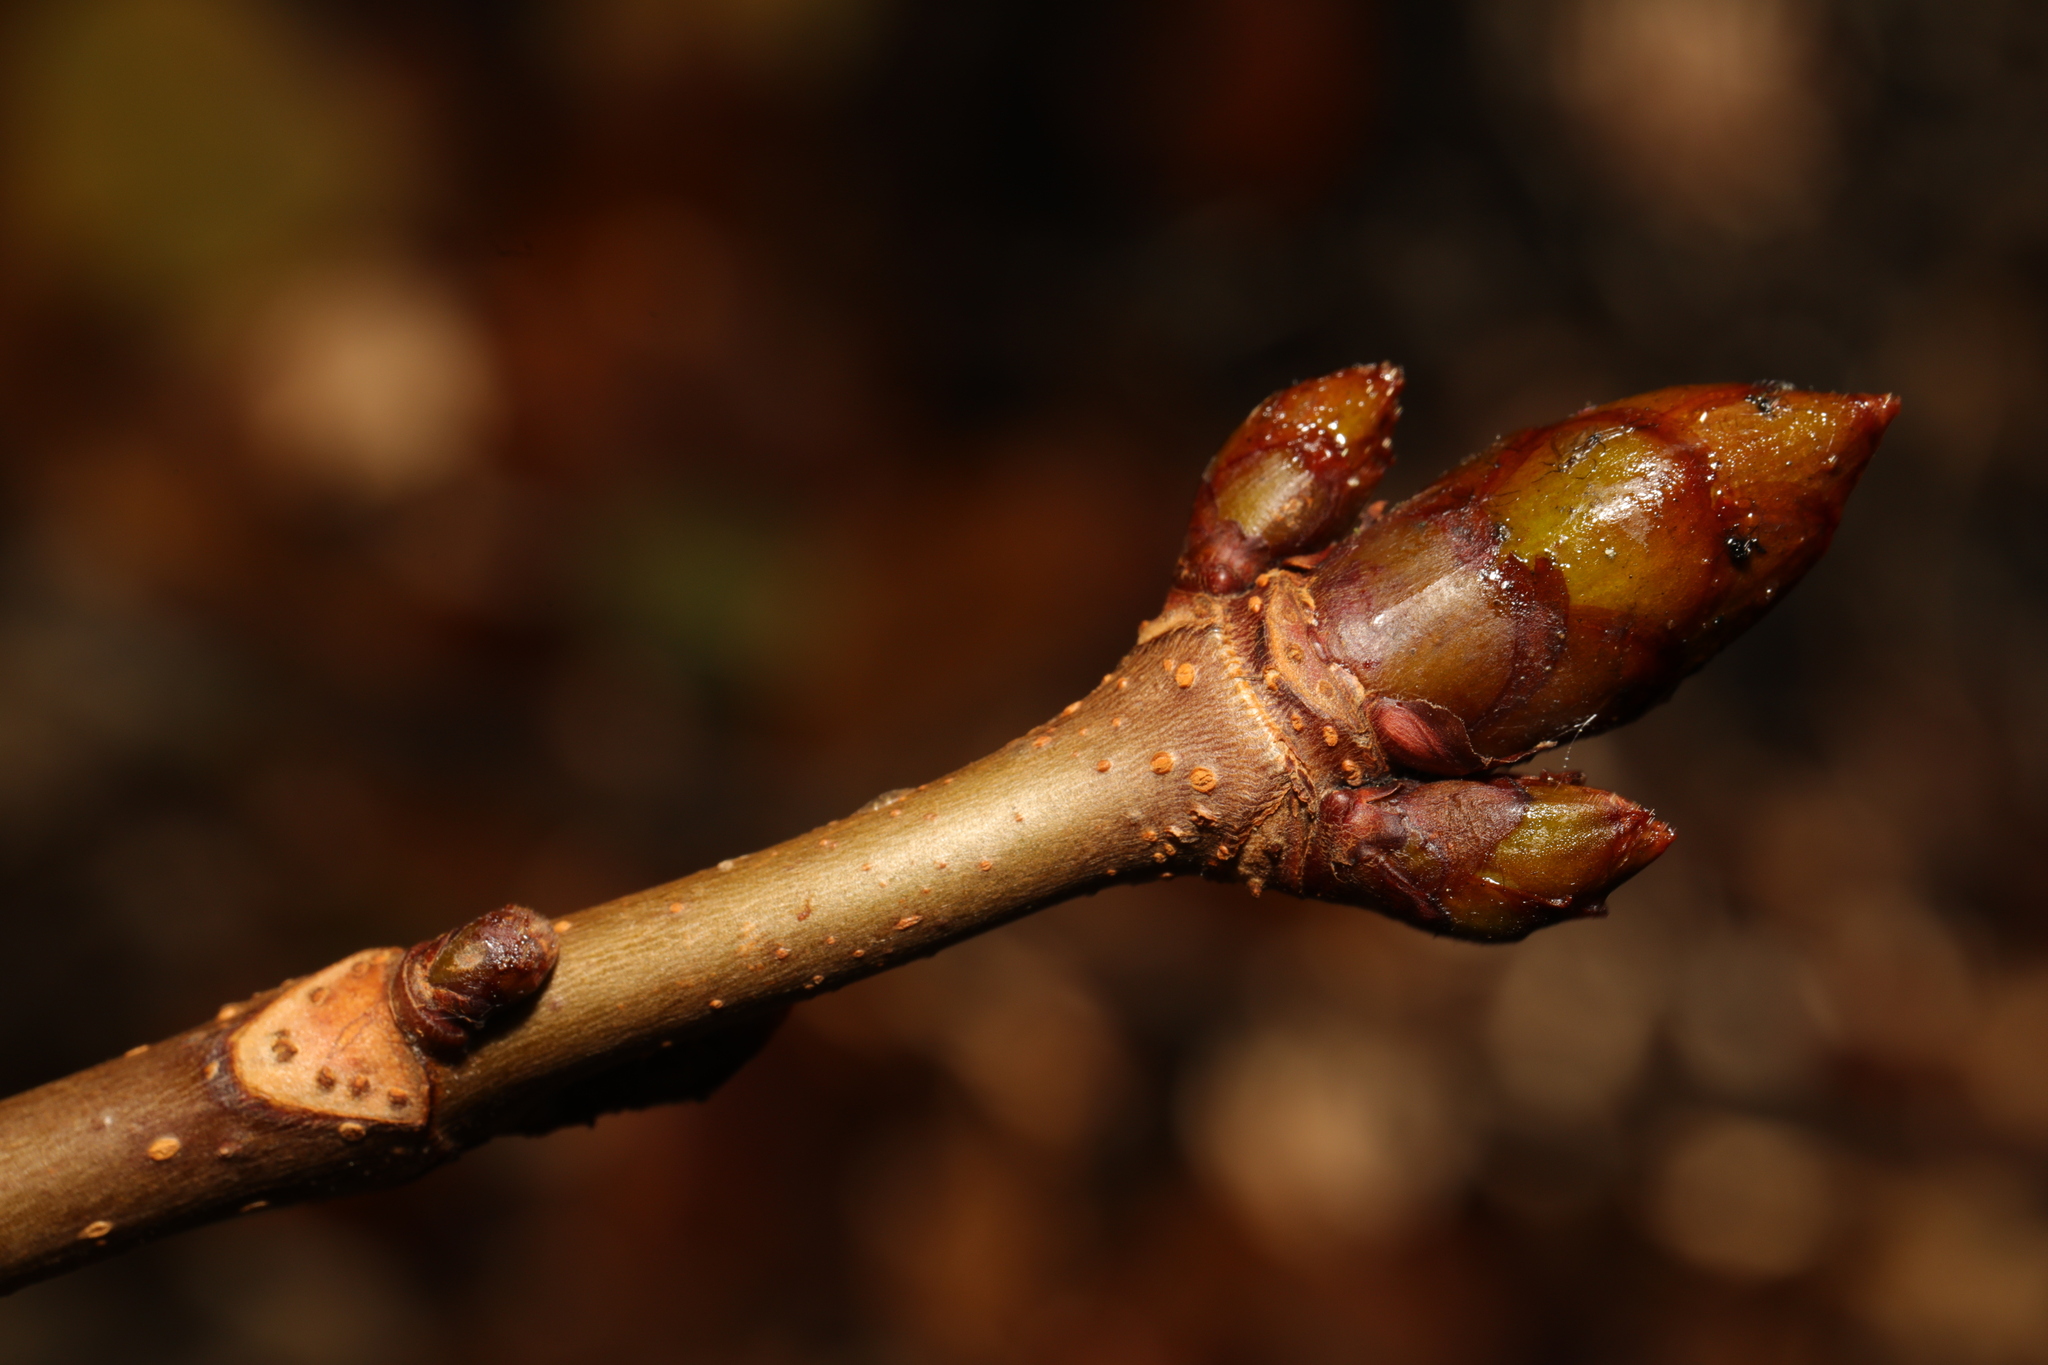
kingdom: Plantae
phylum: Tracheophyta
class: Magnoliopsida
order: Sapindales
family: Sapindaceae
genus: Aesculus
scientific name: Aesculus hippocastanum
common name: Horse-chestnut
